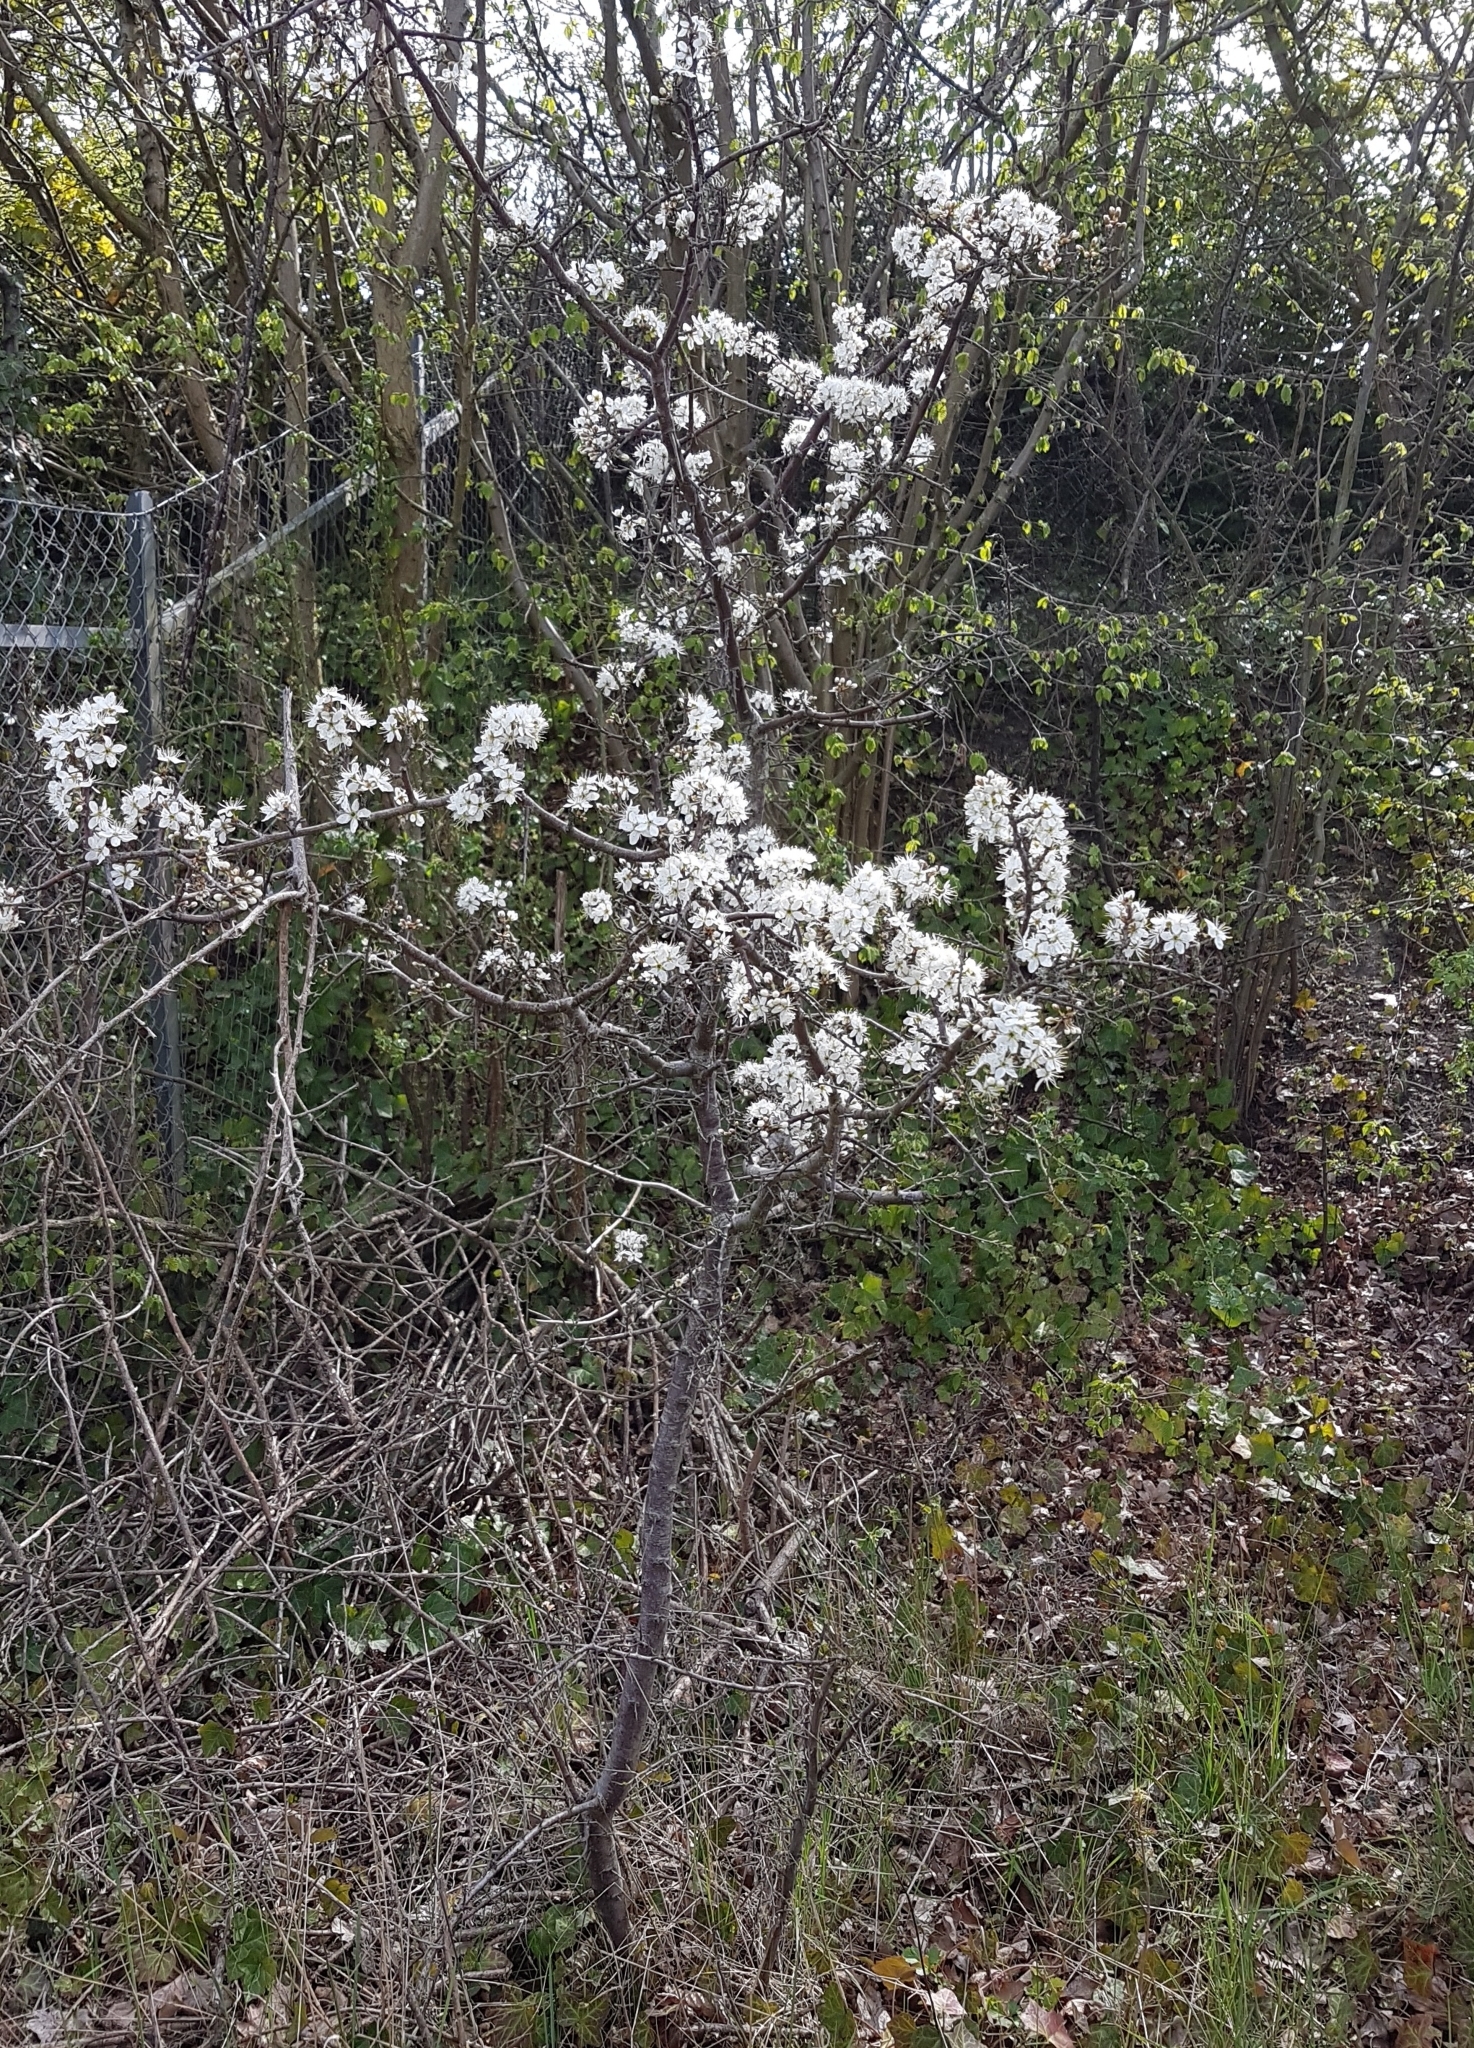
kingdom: Plantae
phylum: Tracheophyta
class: Magnoliopsida
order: Rosales
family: Rosaceae
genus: Prunus
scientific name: Prunus spinosa
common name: Blackthorn
